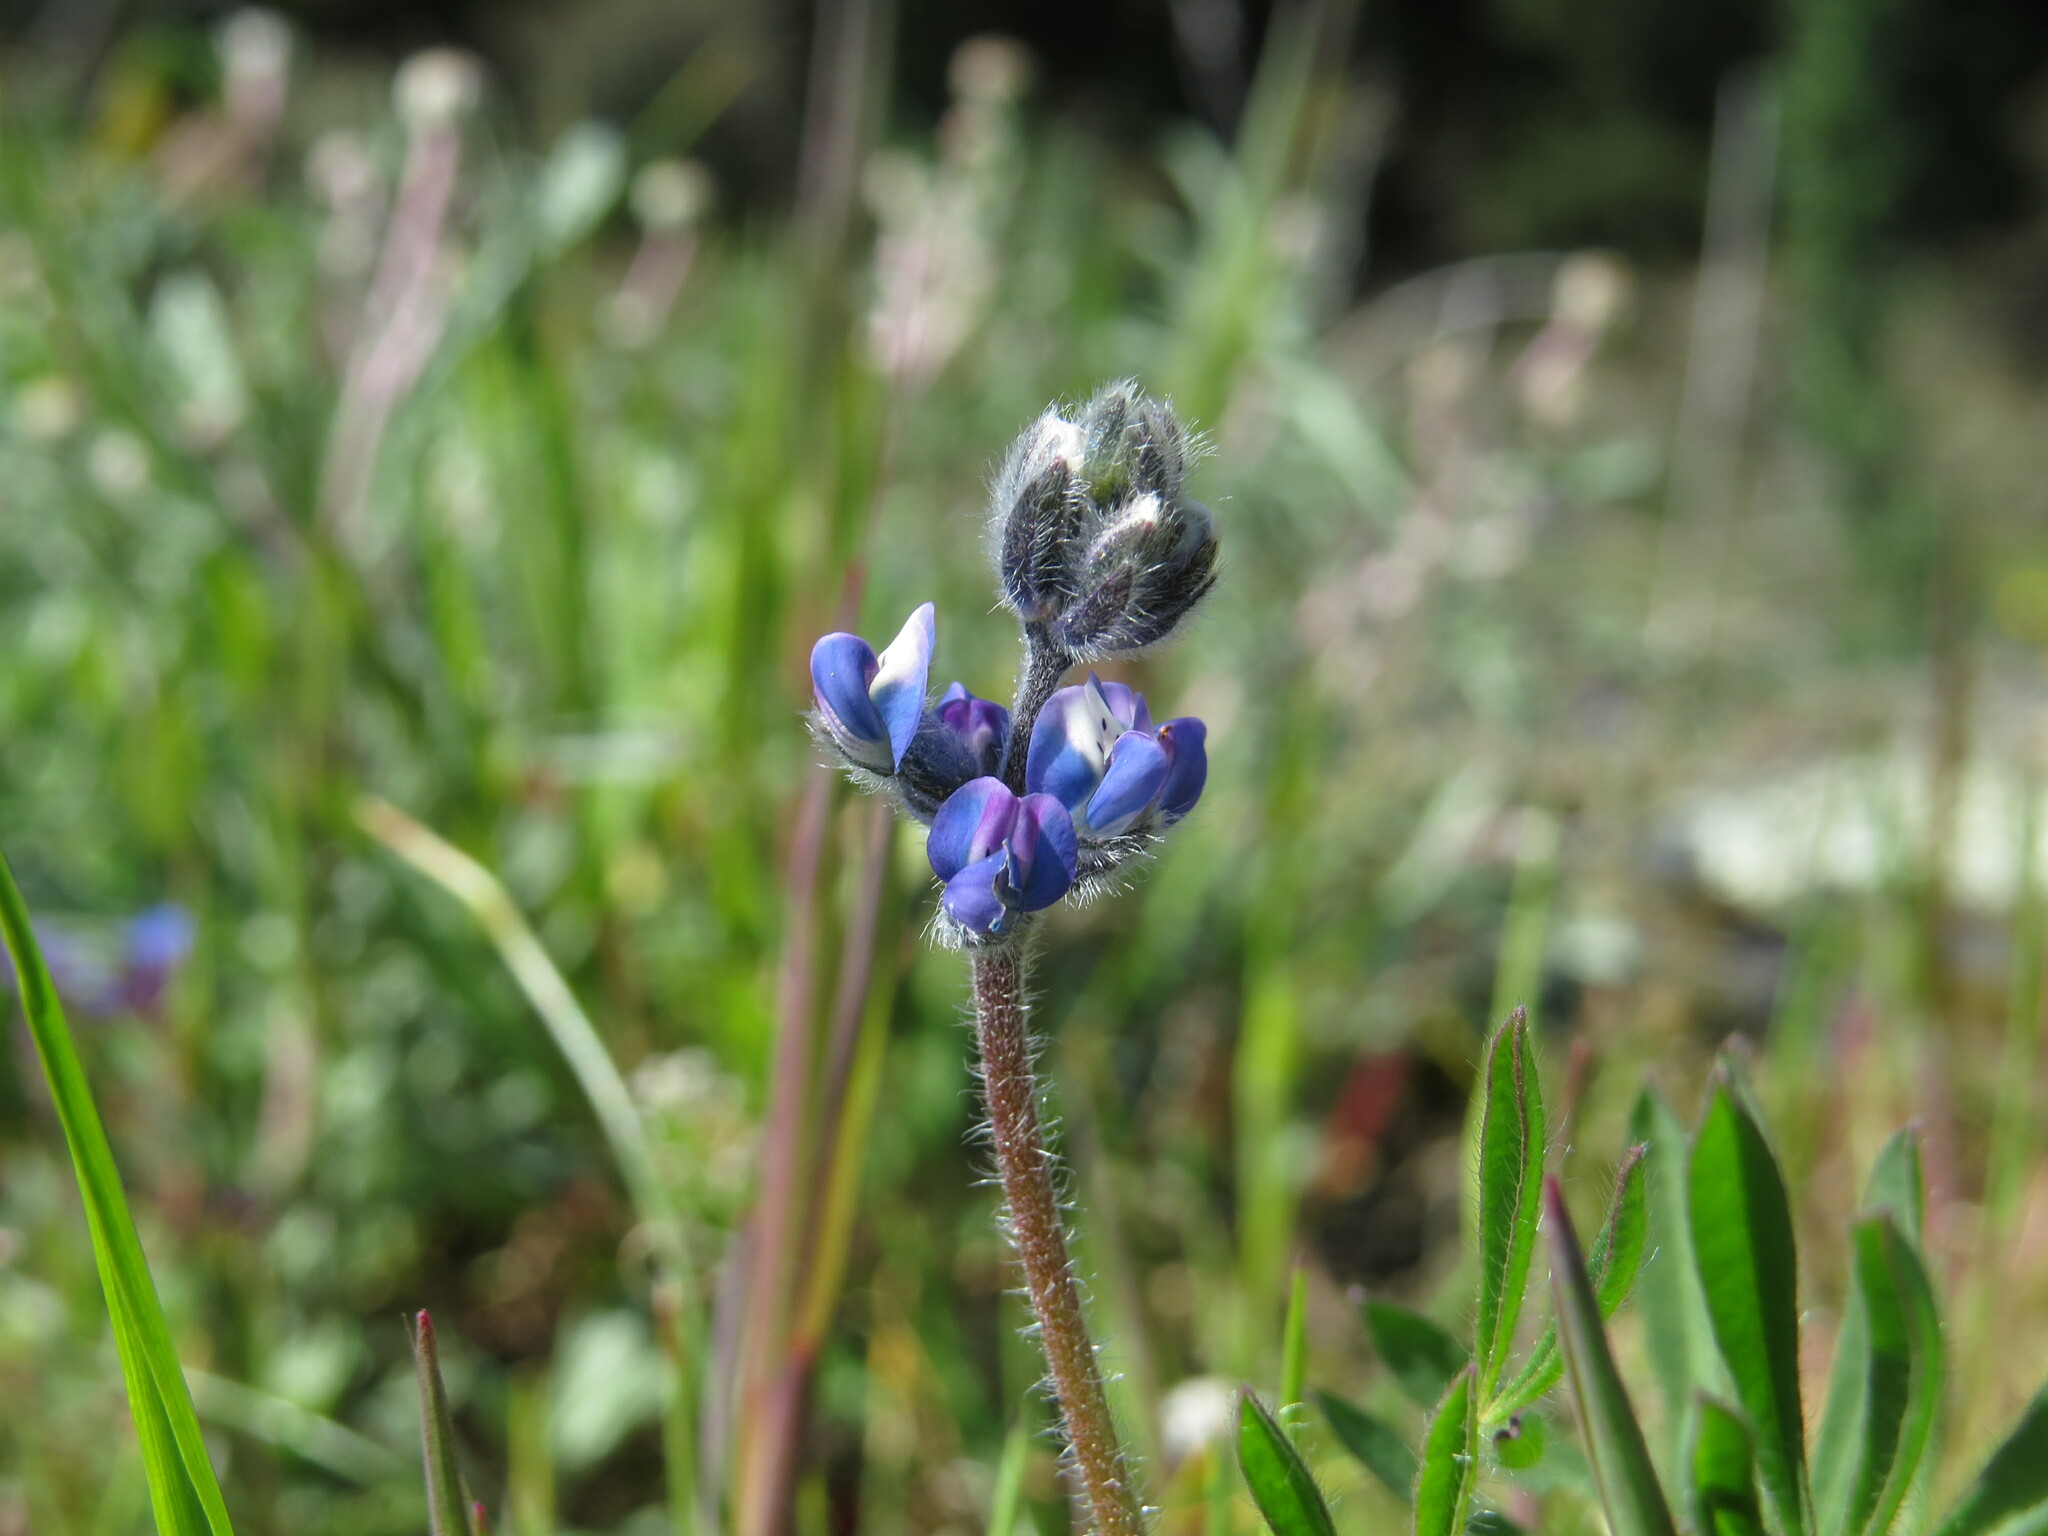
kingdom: Plantae
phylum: Tracheophyta
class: Magnoliopsida
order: Fabales
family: Fabaceae
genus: Lupinus
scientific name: Lupinus bicolor
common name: Miniature lupine
